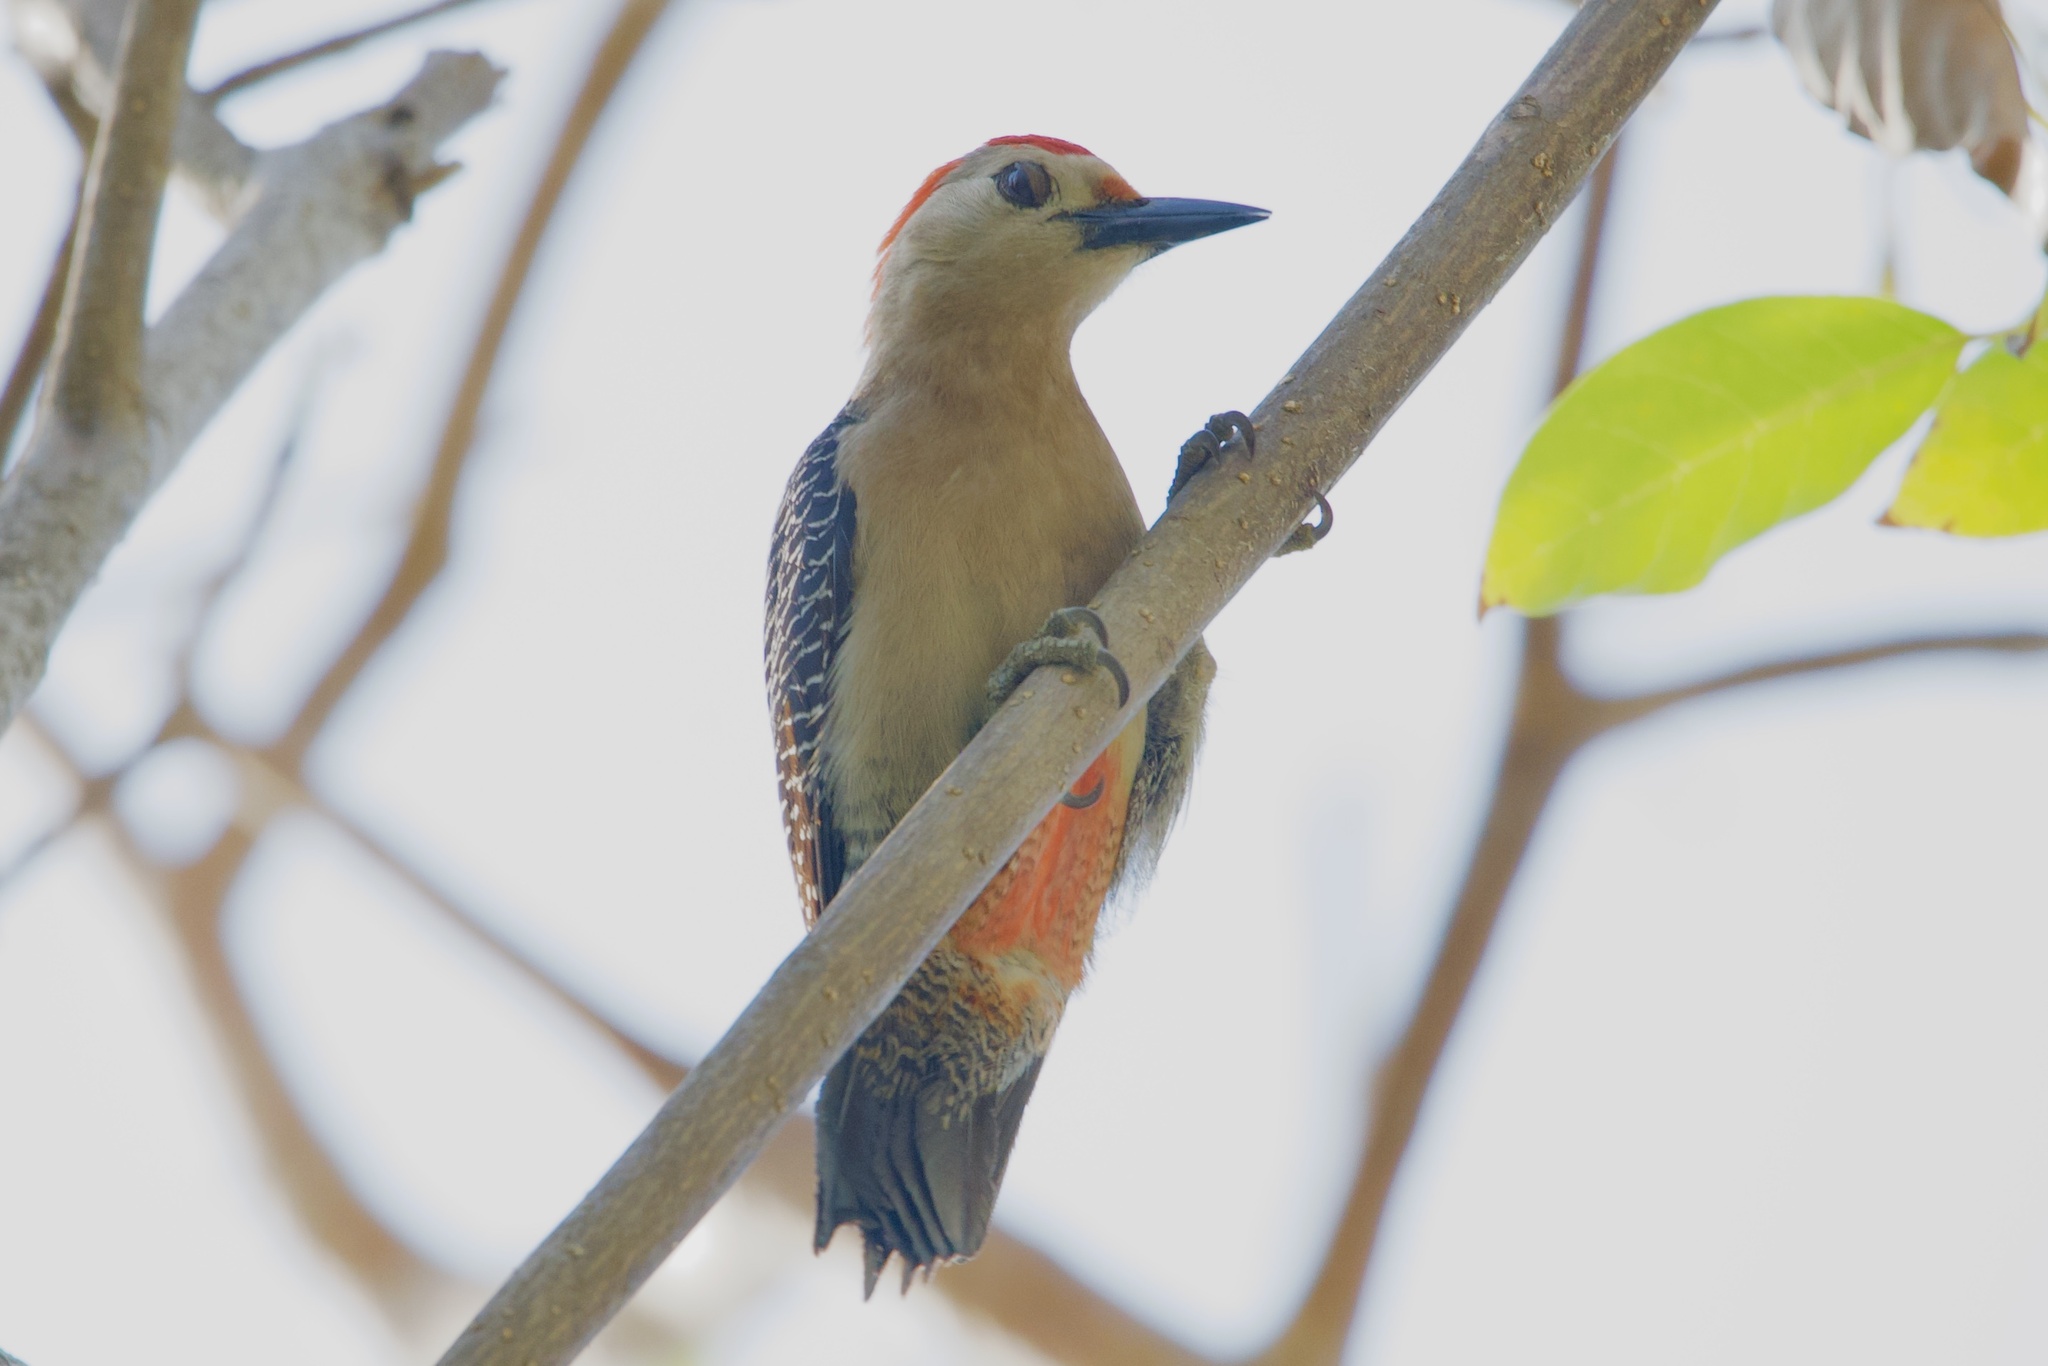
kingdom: Animalia
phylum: Chordata
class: Aves
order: Piciformes
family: Picidae
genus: Melanerpes
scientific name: Melanerpes aurifrons
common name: Golden-fronted woodpecker
